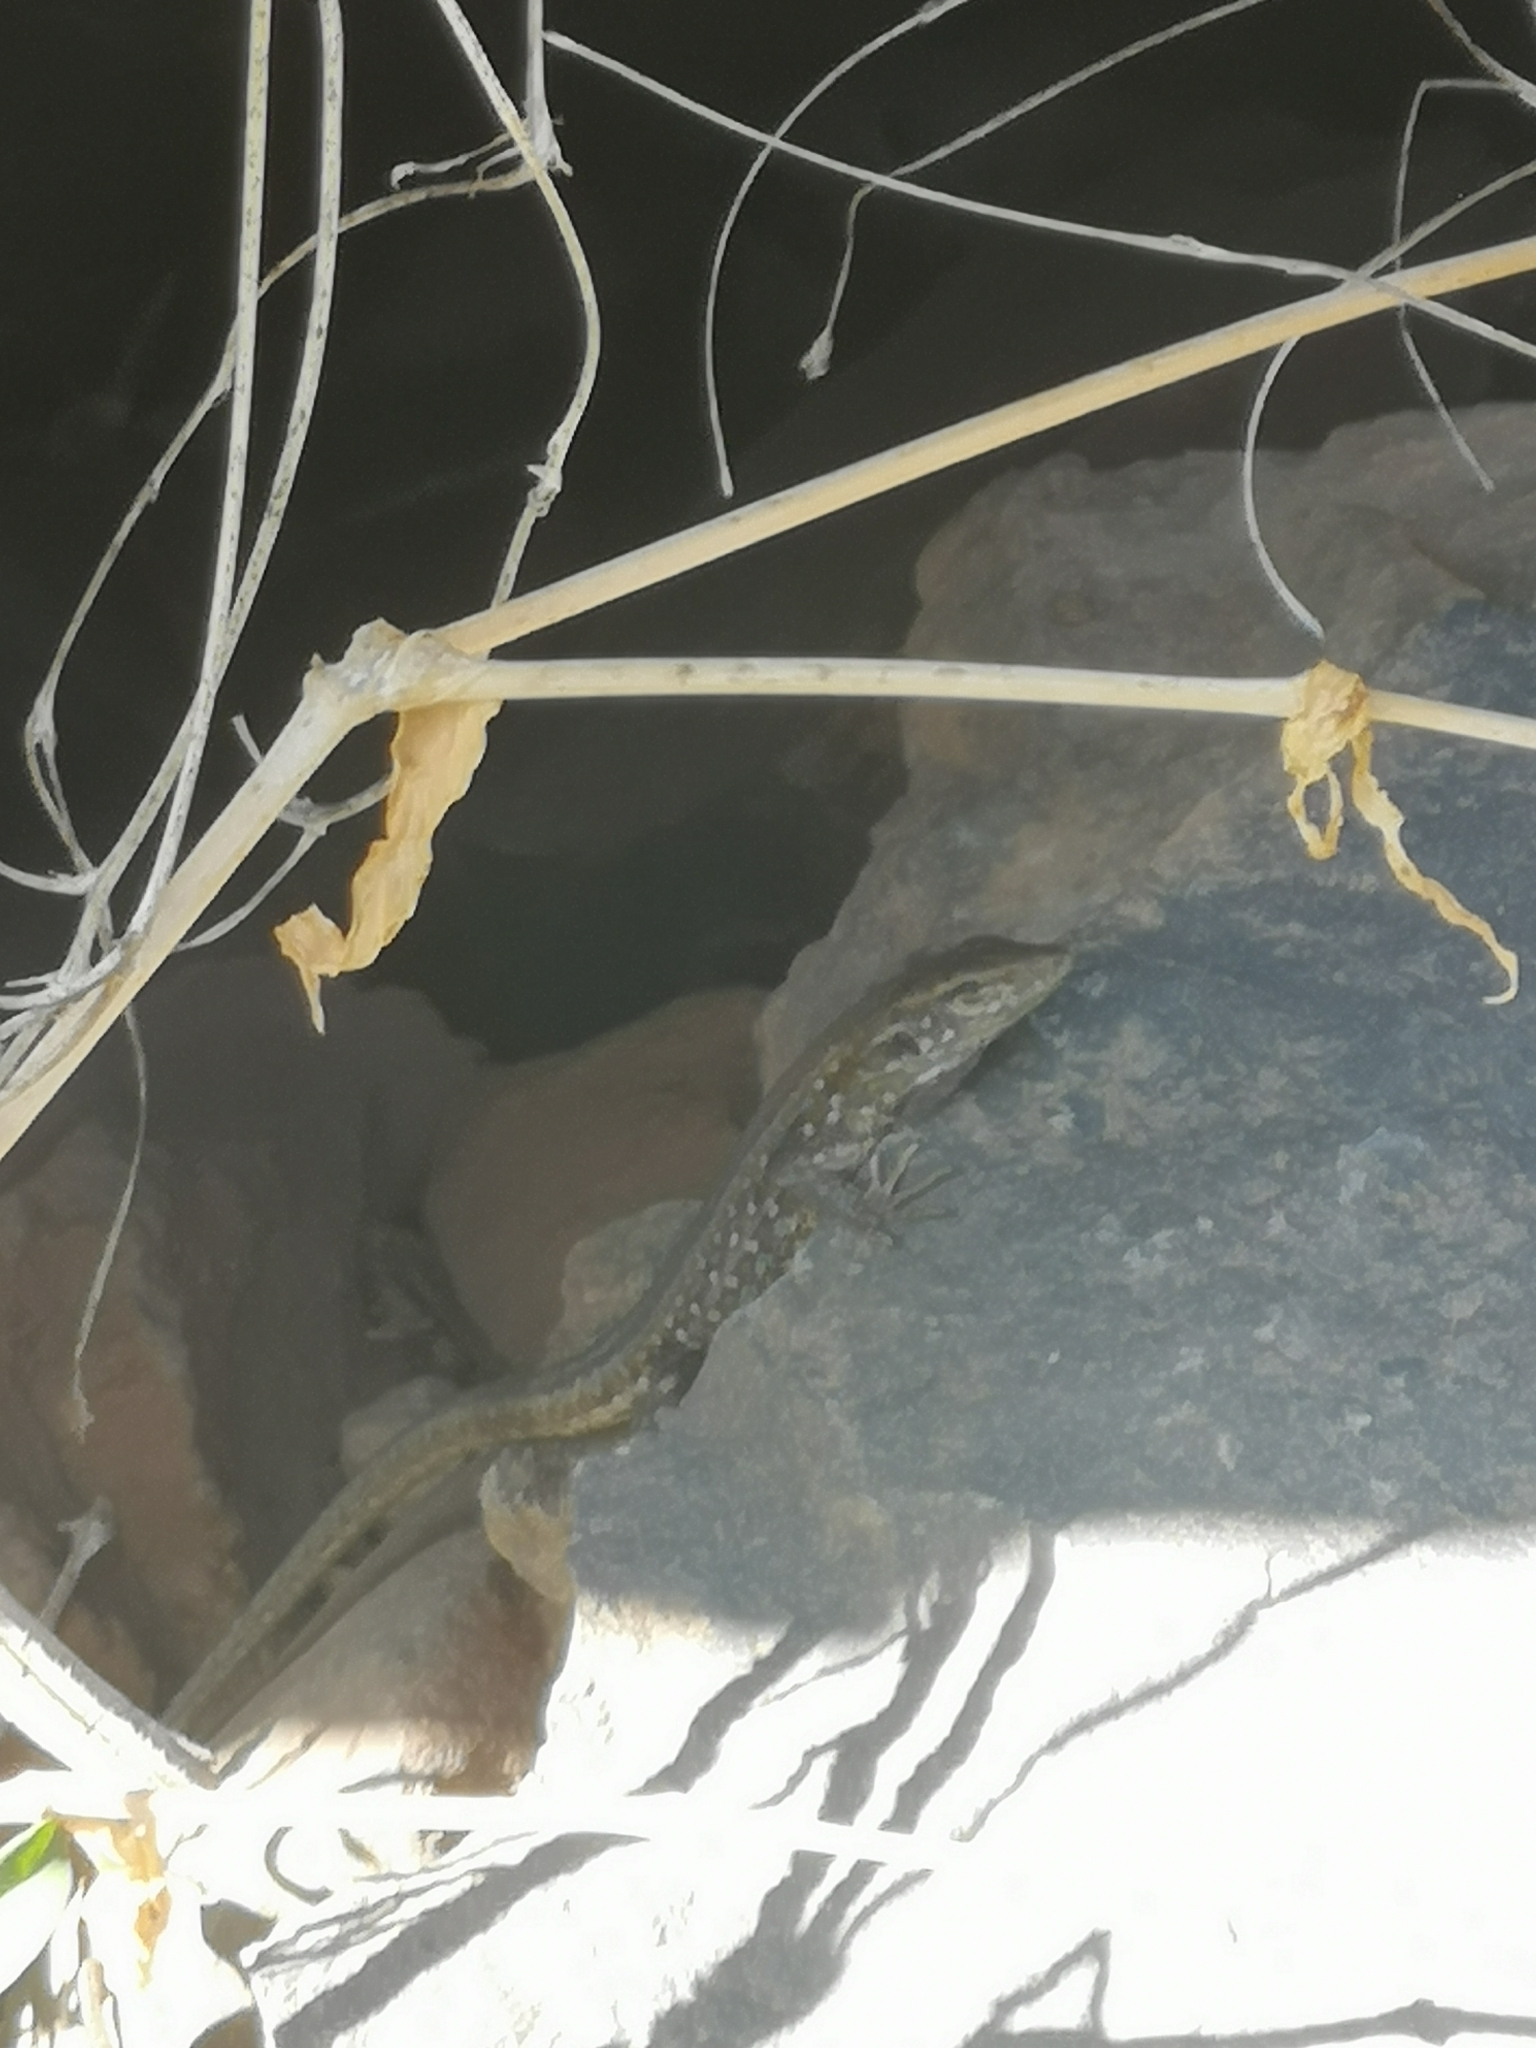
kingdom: Animalia
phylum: Chordata
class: Squamata
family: Lacertidae
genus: Gallotia
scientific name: Gallotia galloti
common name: Gallot's lizard
